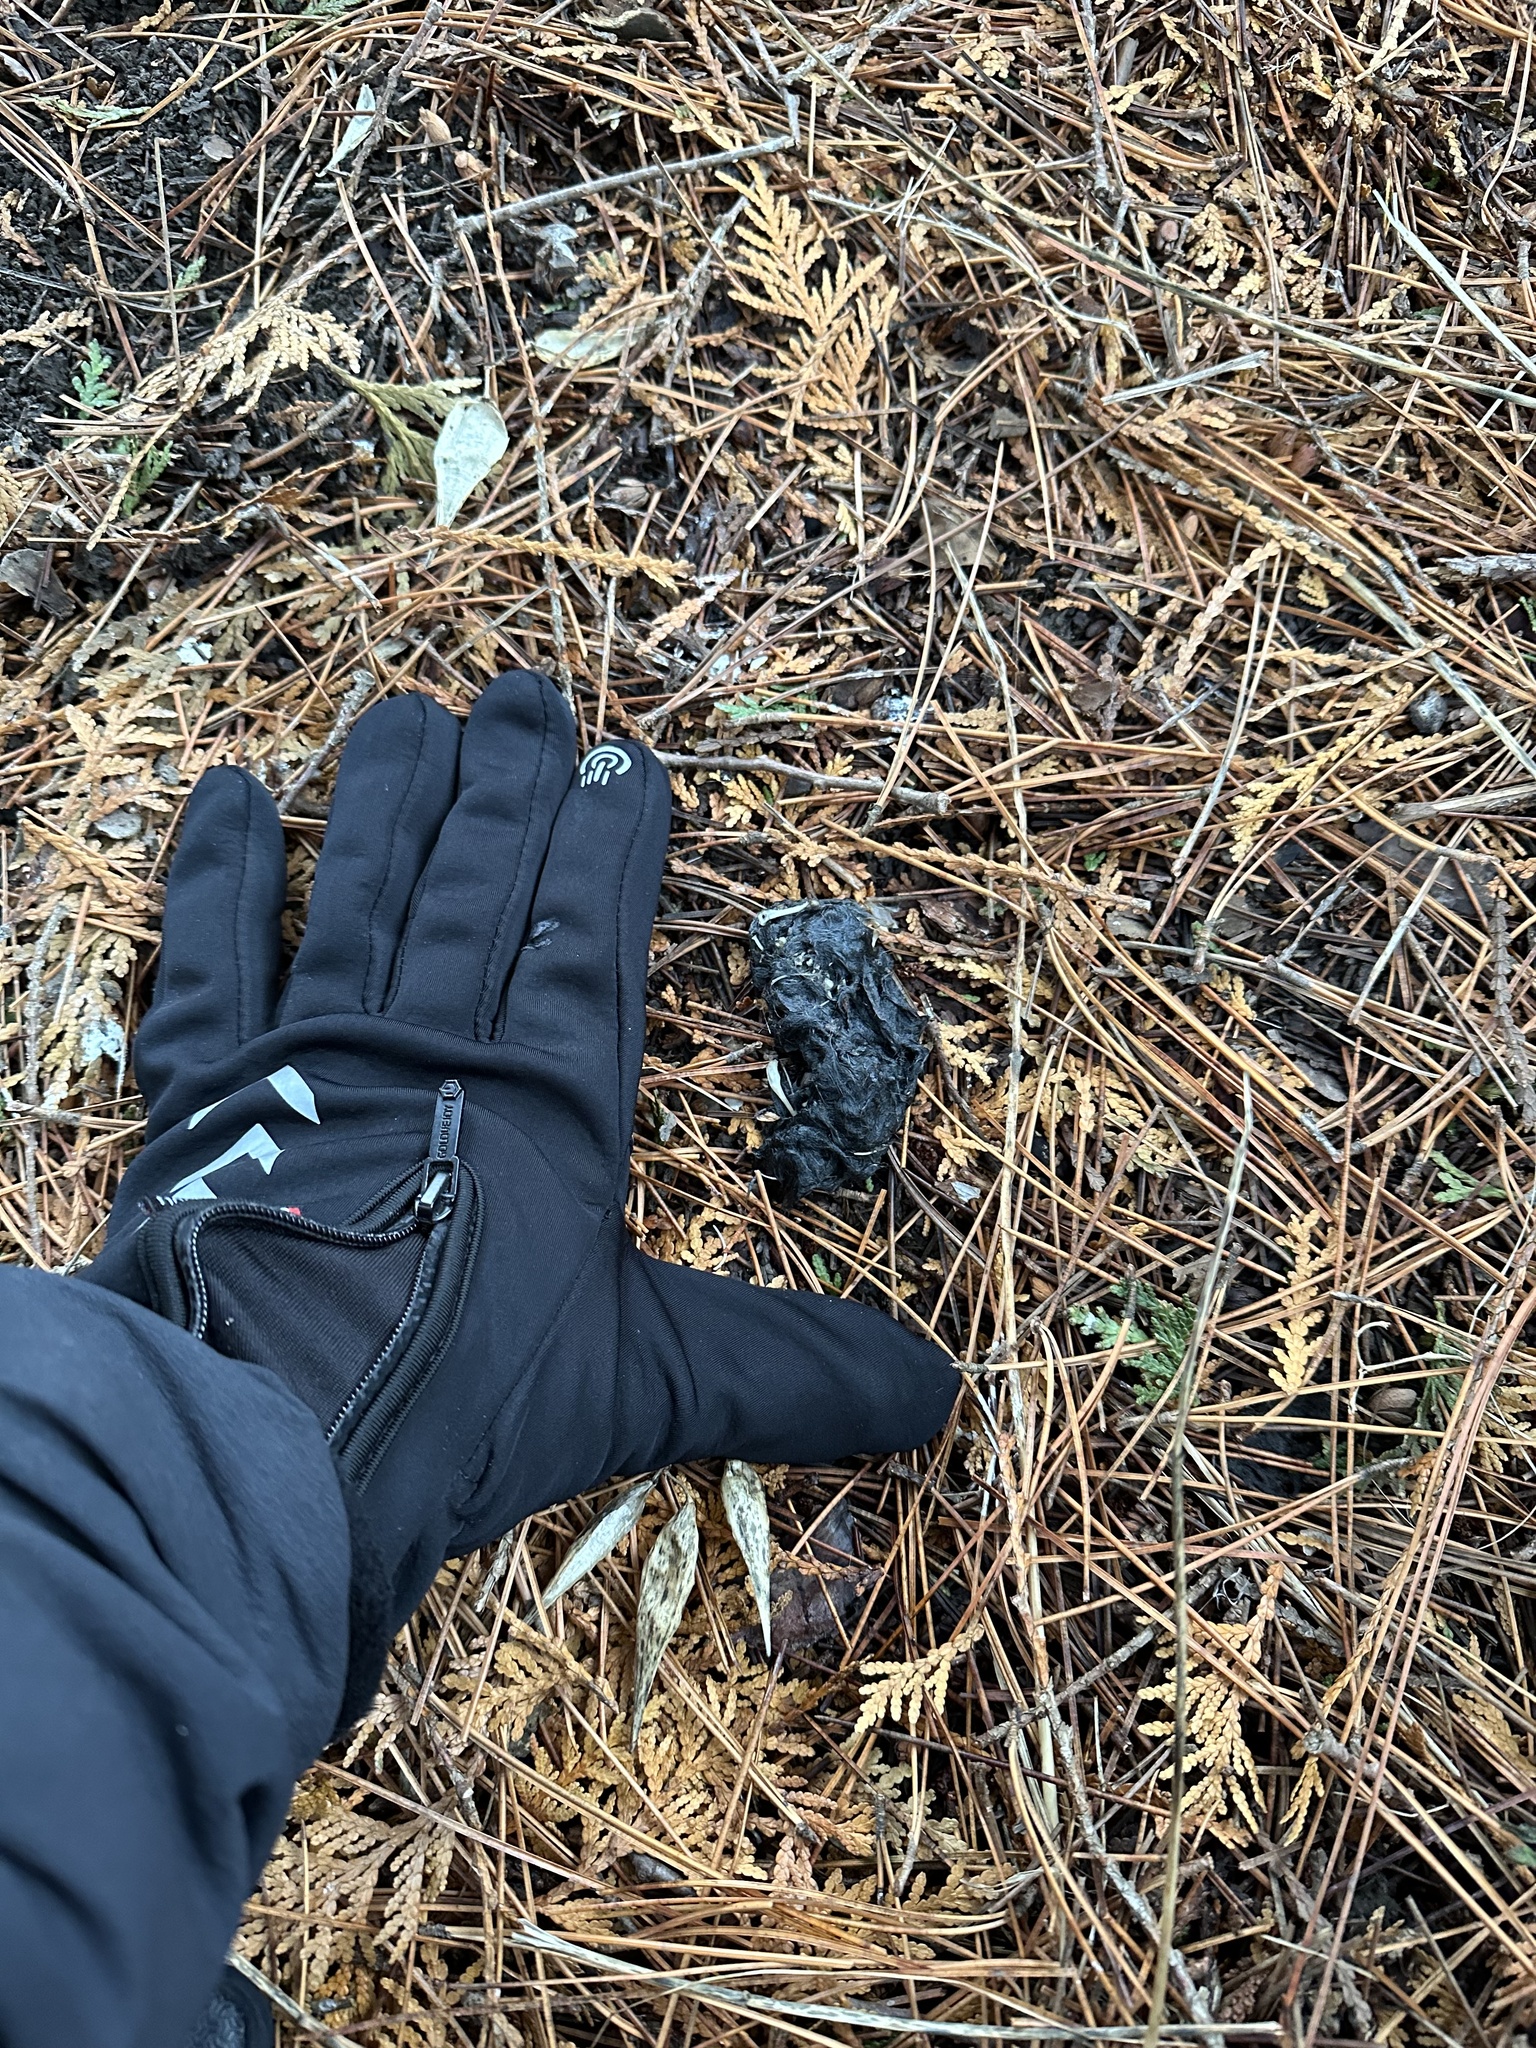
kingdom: Animalia
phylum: Chordata
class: Aves
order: Strigiformes
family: Strigidae
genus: Asio
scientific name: Asio otus
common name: Long-eared owl
